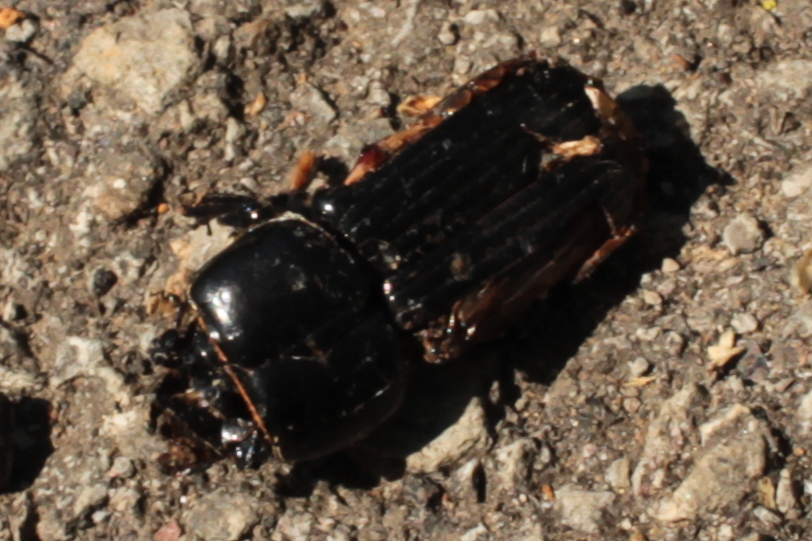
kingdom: Animalia
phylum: Arthropoda
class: Insecta
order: Coleoptera
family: Passalidae
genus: Odontotaenius
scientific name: Odontotaenius disjunctus
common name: Patent leather beetle
